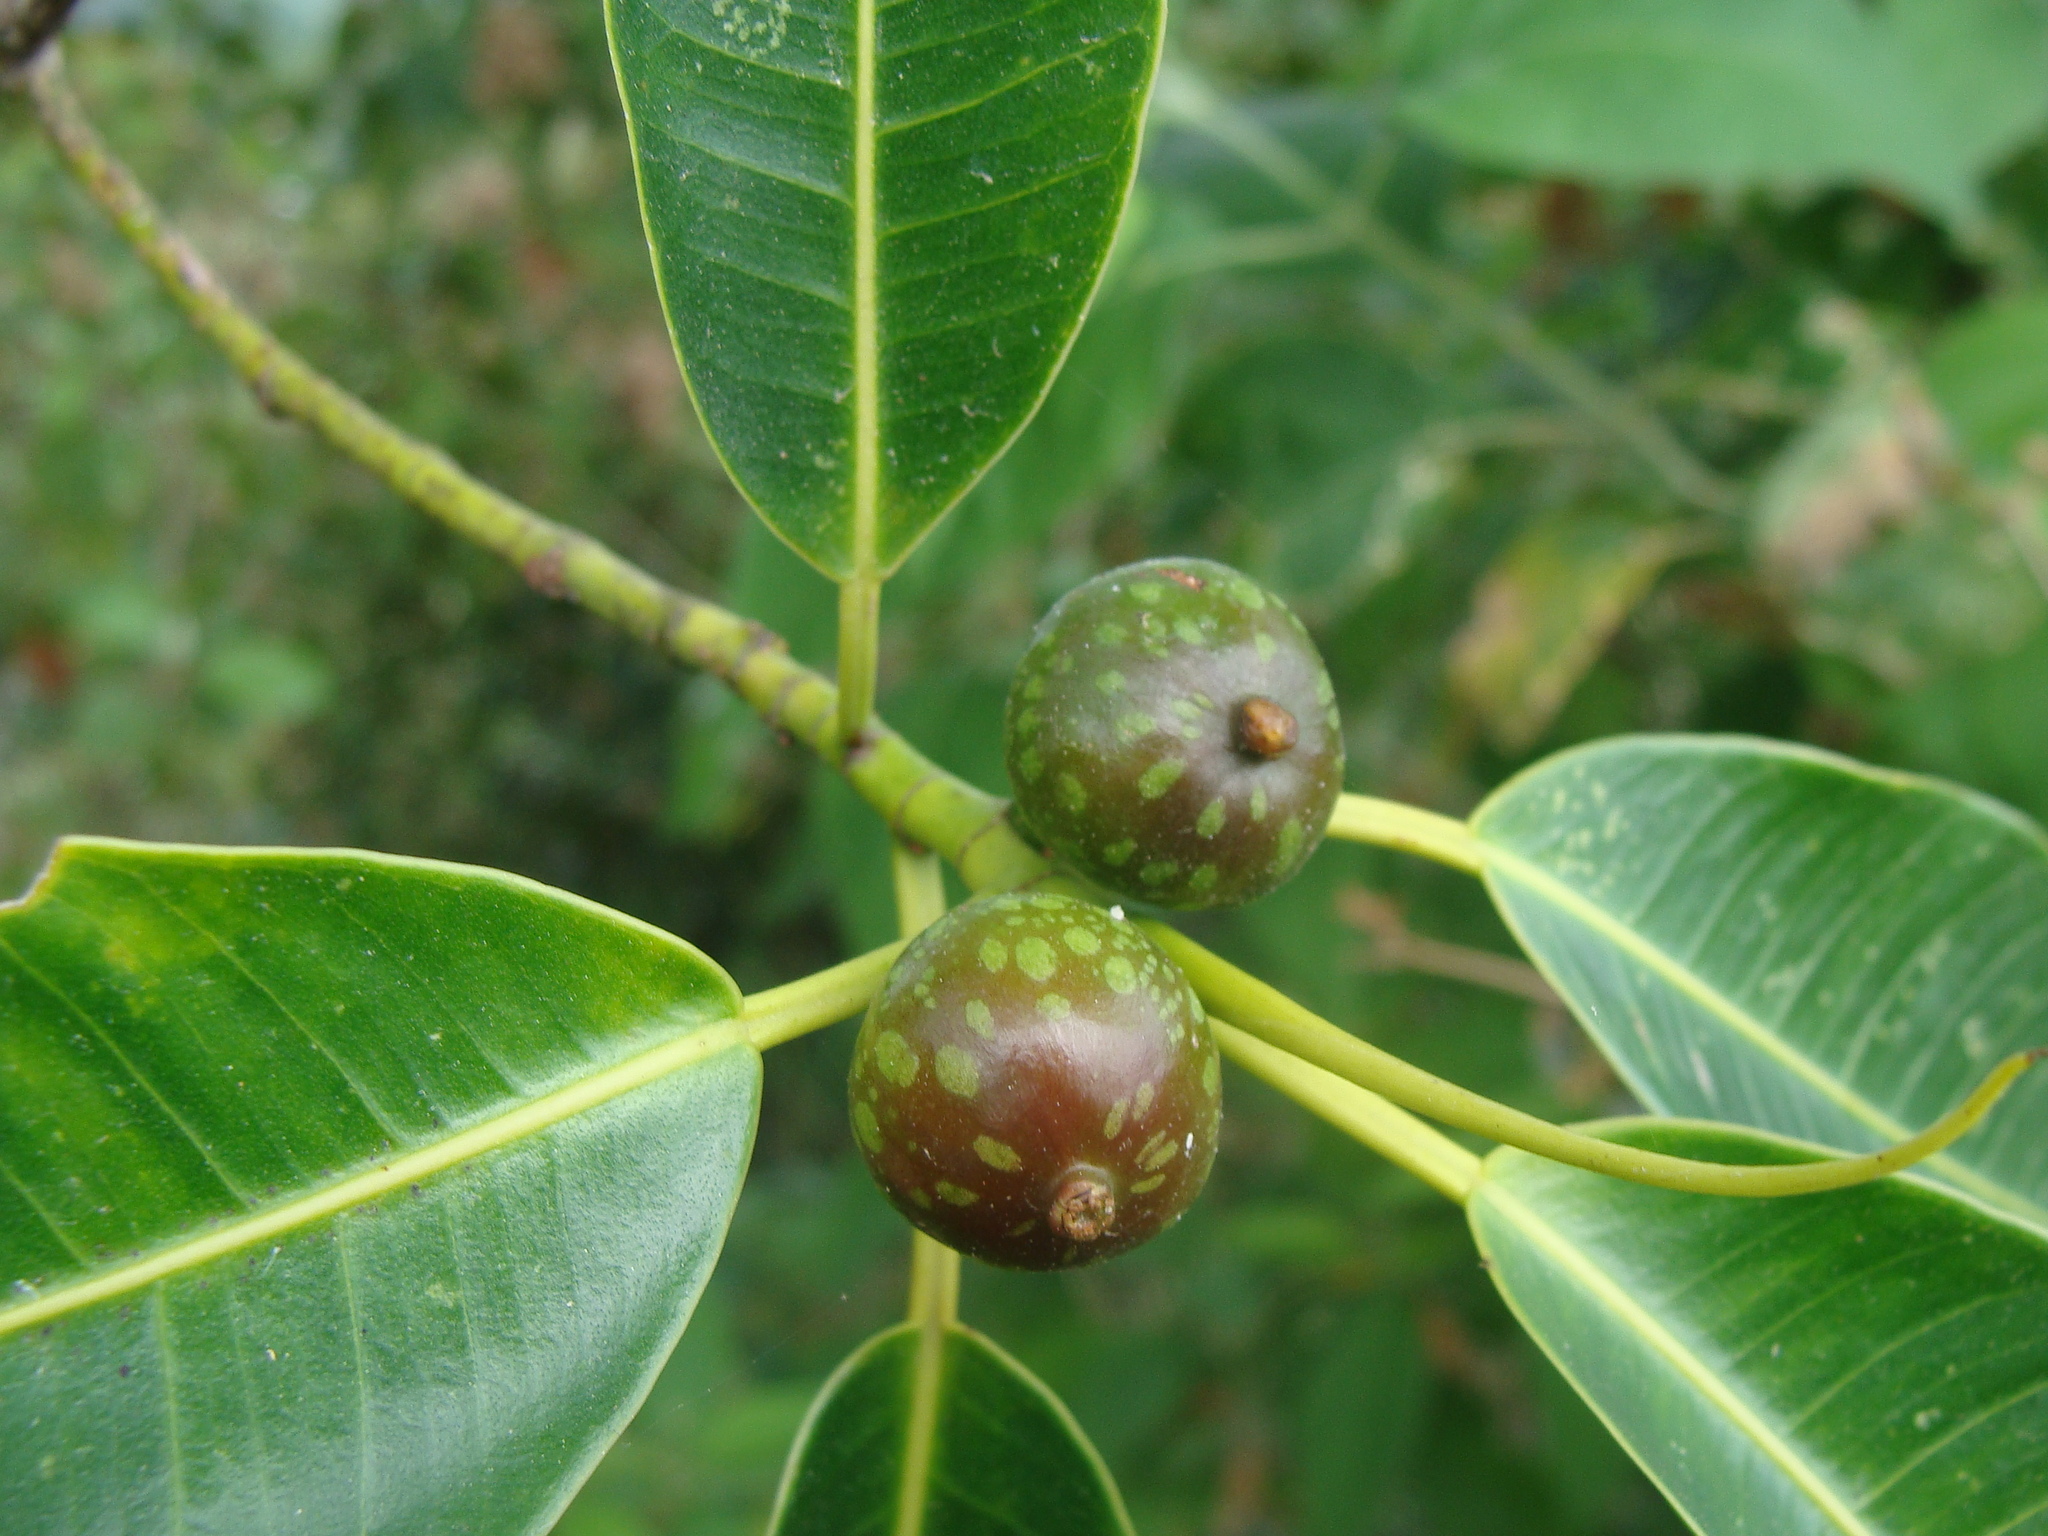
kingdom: Plantae
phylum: Tracheophyta
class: Magnoliopsida
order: Rosales
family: Moraceae
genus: Ficus
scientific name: Ficus insipida
